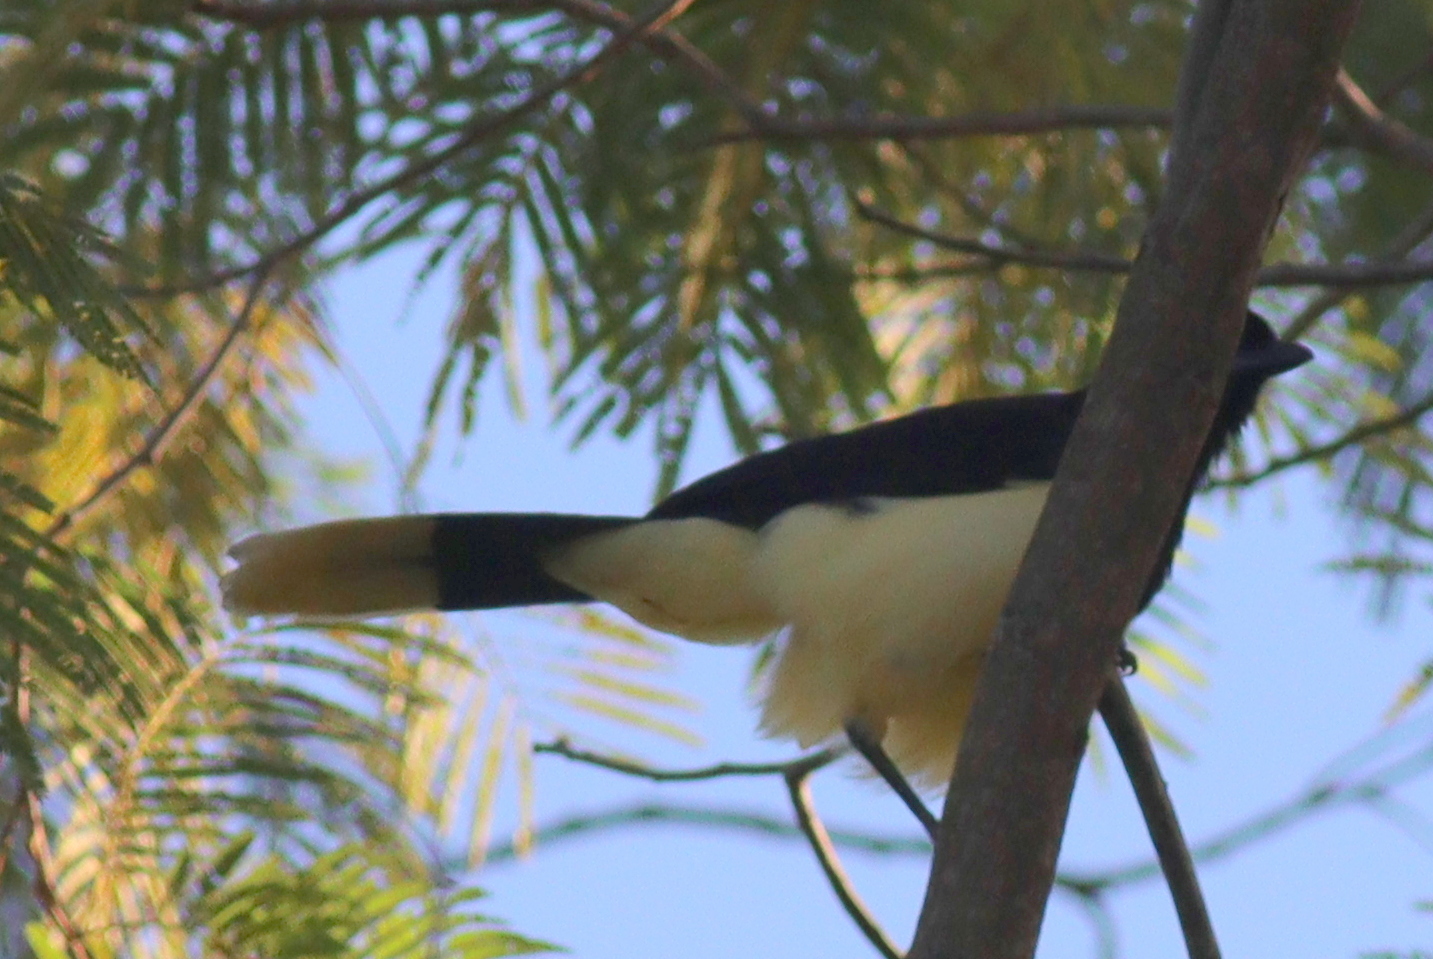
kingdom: Animalia
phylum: Chordata
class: Aves
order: Passeriformes
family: Corvidae
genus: Cyanocorax
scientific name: Cyanocorax chrysops
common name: Plush-crested jay
